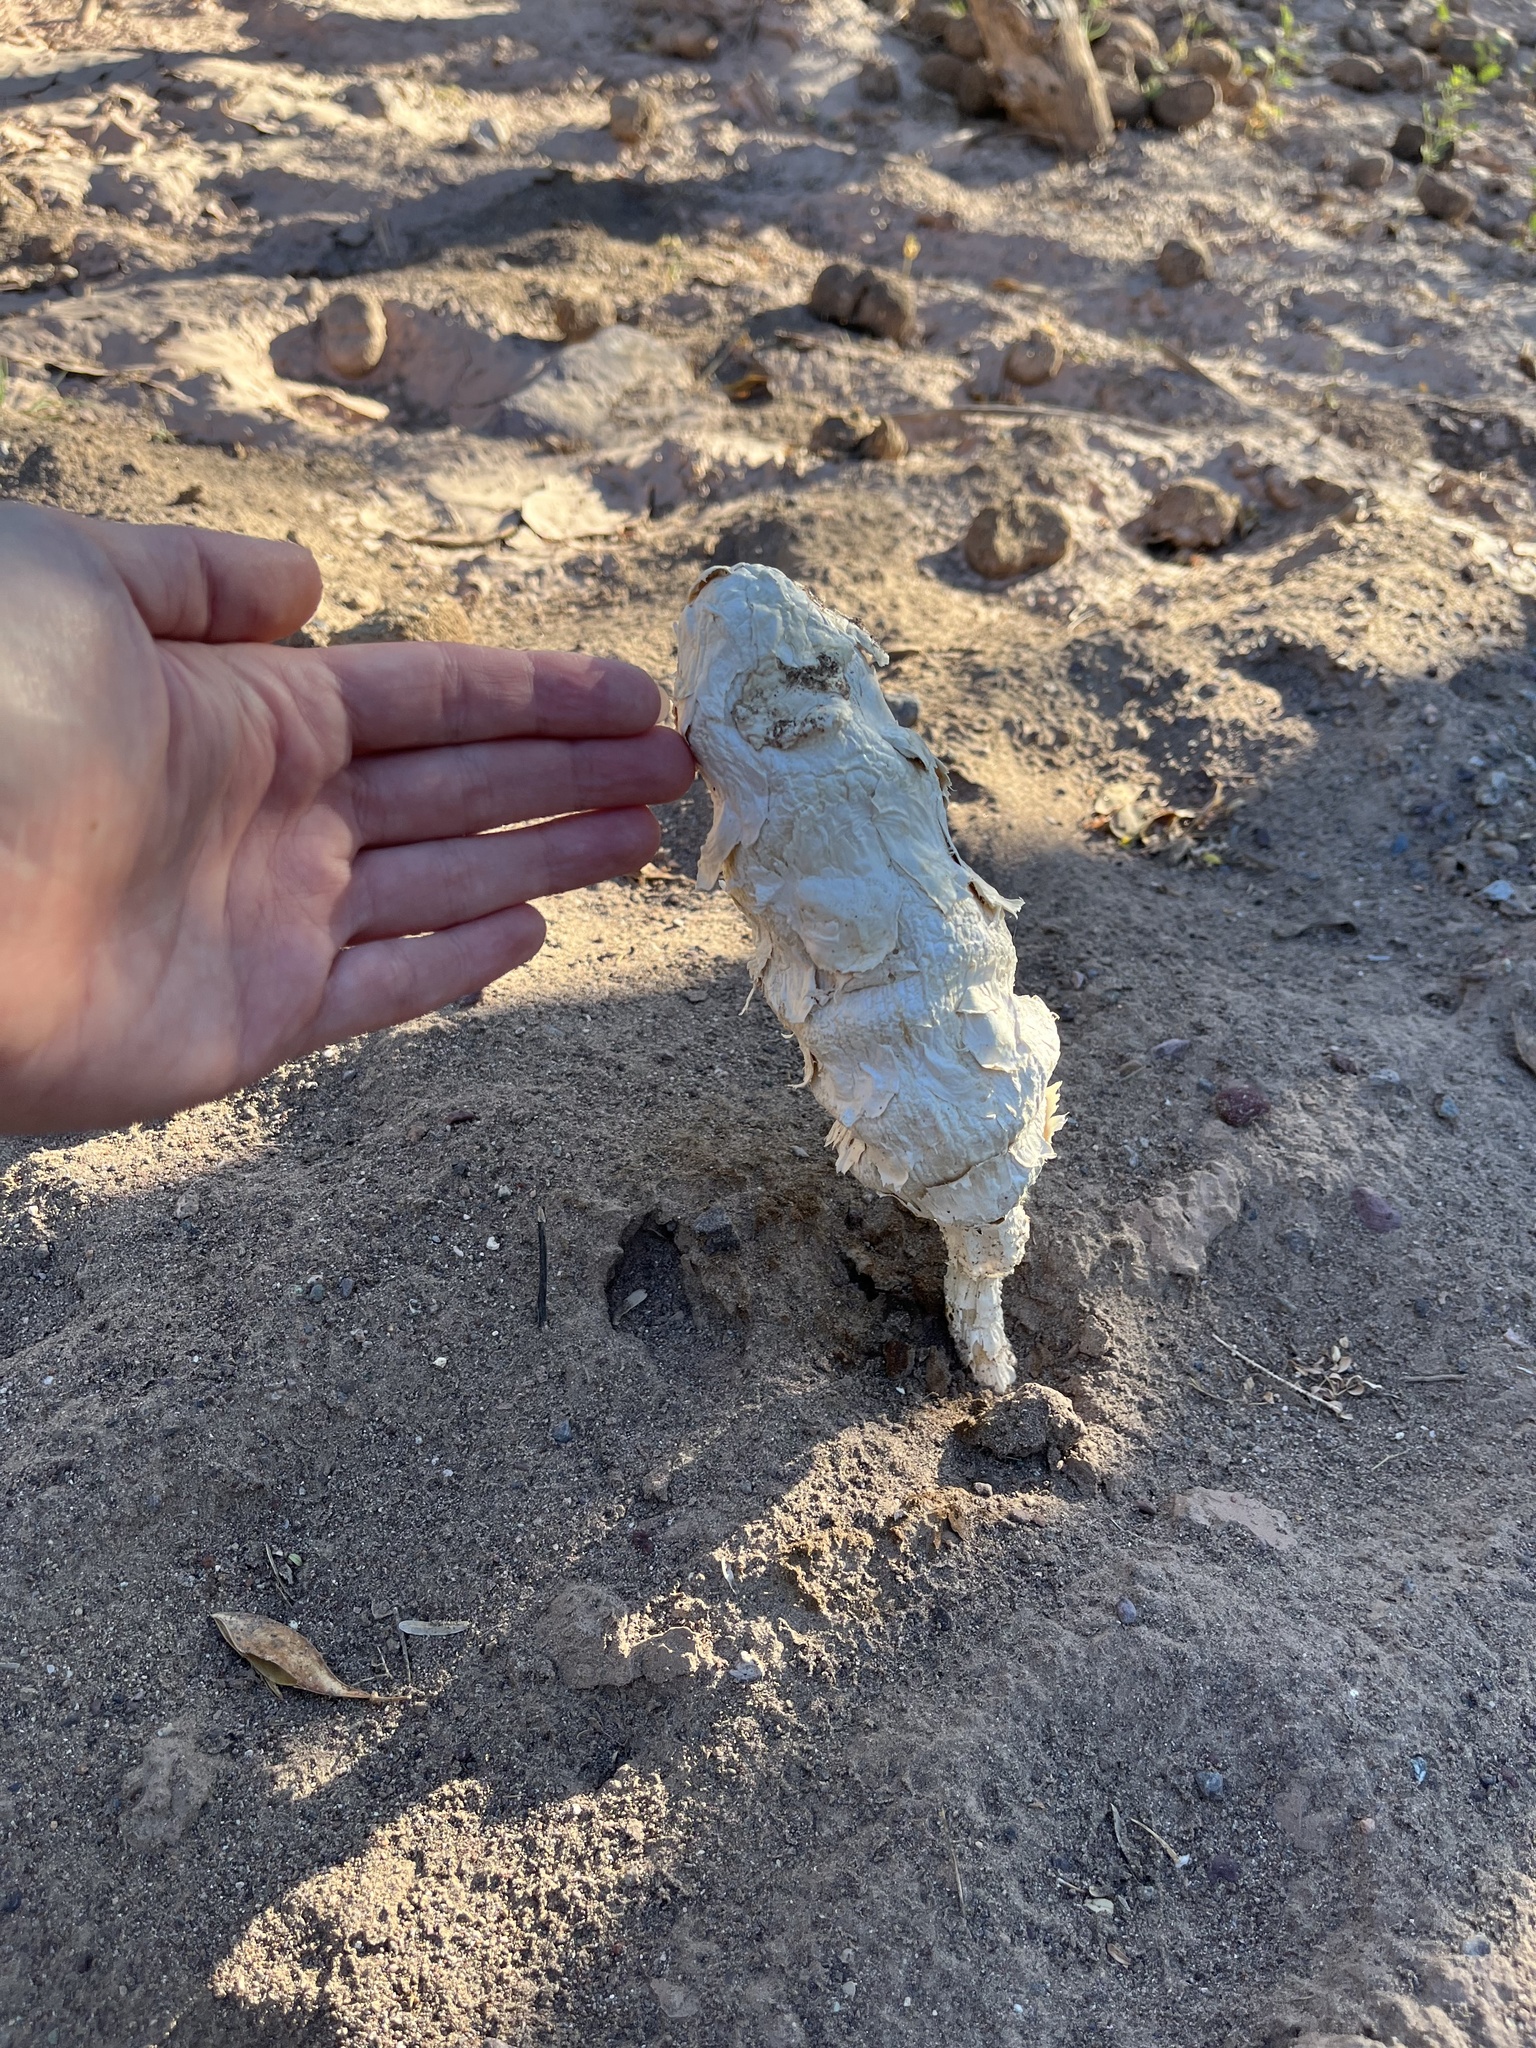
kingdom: Fungi
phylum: Basidiomycota
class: Agaricomycetes
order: Agaricales
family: Agaricaceae
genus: Podaxis
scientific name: Podaxis pistillaris
